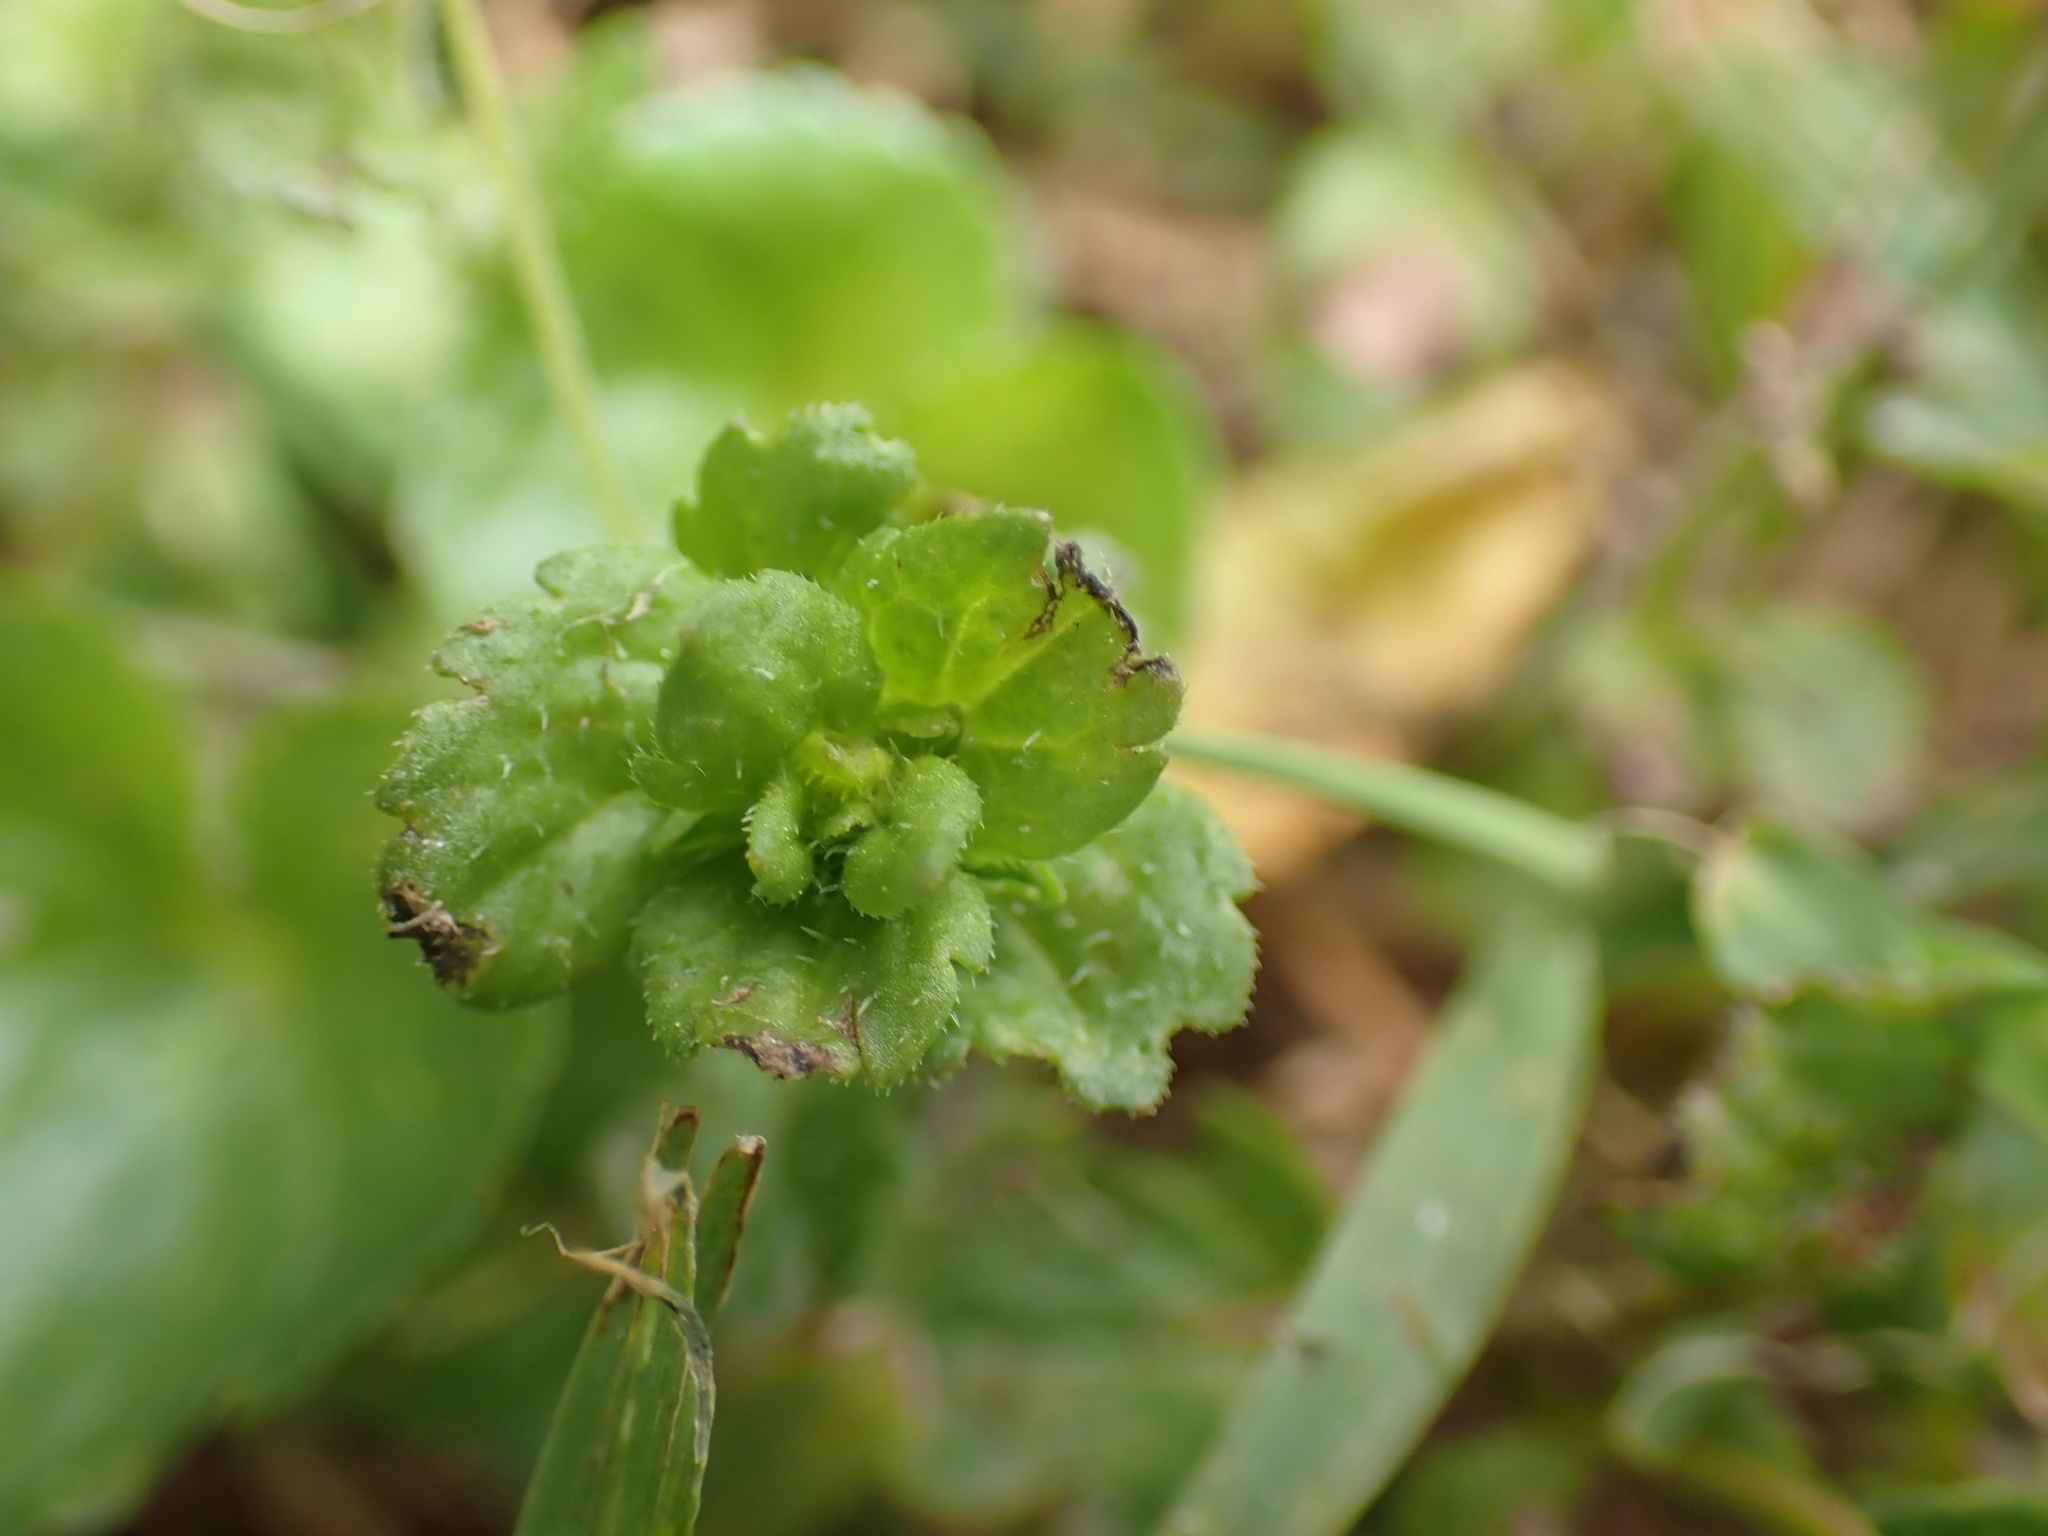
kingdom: Plantae
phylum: Tracheophyta
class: Magnoliopsida
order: Lamiales
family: Plantaginaceae
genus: Veronica
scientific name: Veronica persica
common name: Common field-speedwell
